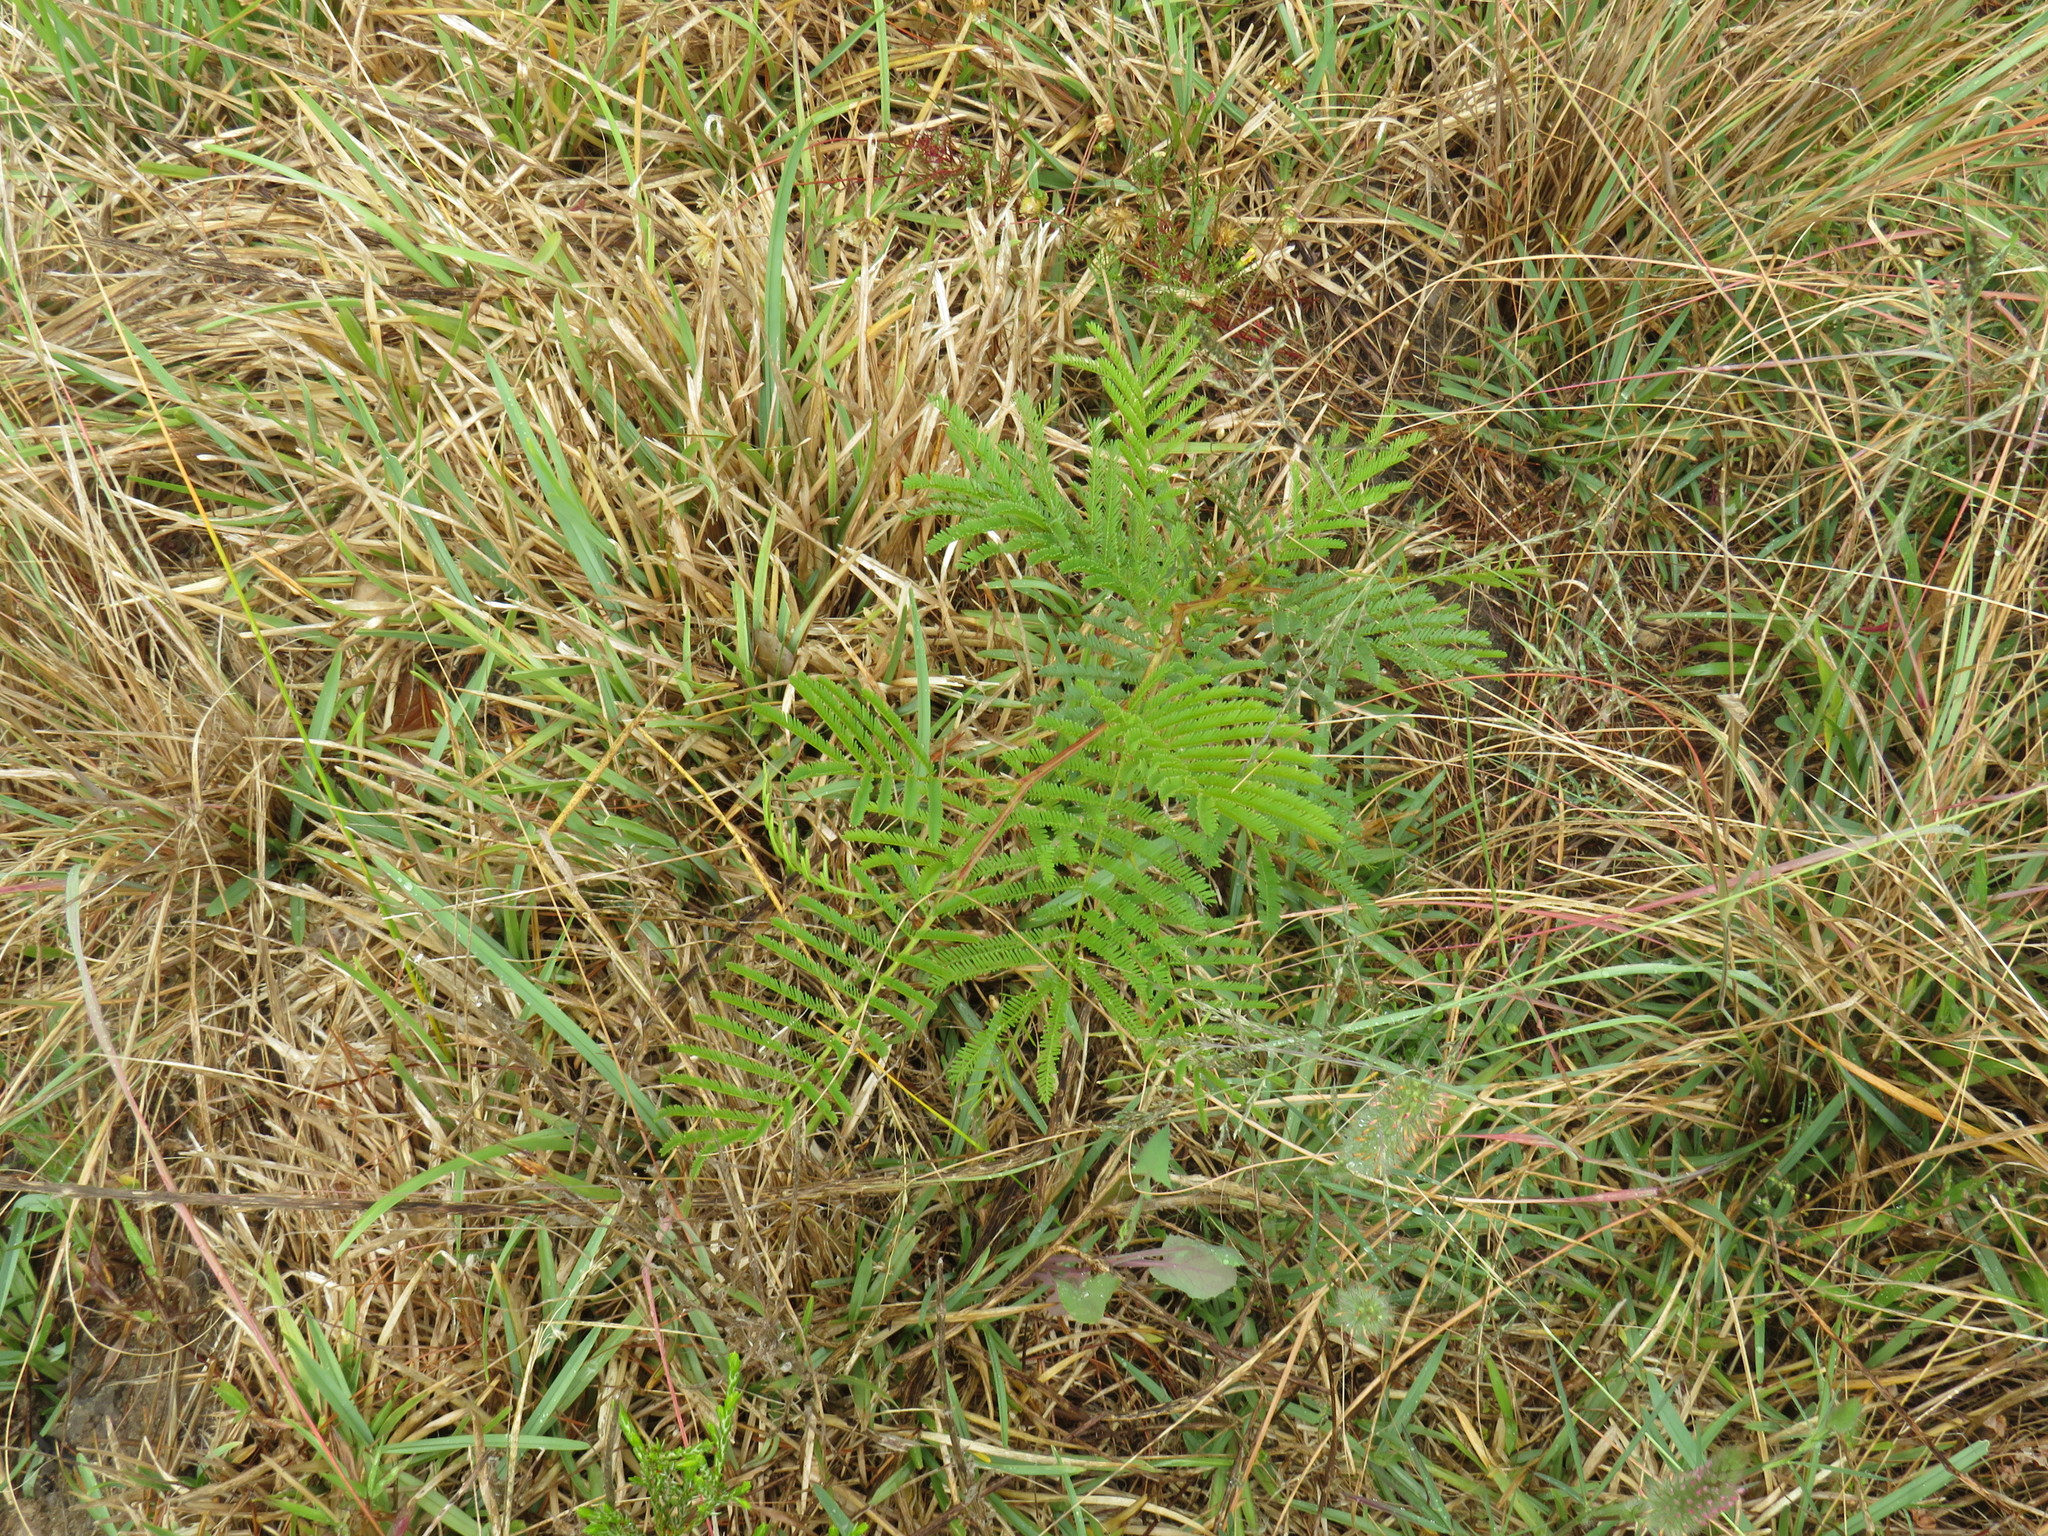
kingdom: Plantae
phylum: Tracheophyta
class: Magnoliopsida
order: Fabales
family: Fabaceae
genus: Acacia
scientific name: Acacia mearnsii
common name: Black wattle
